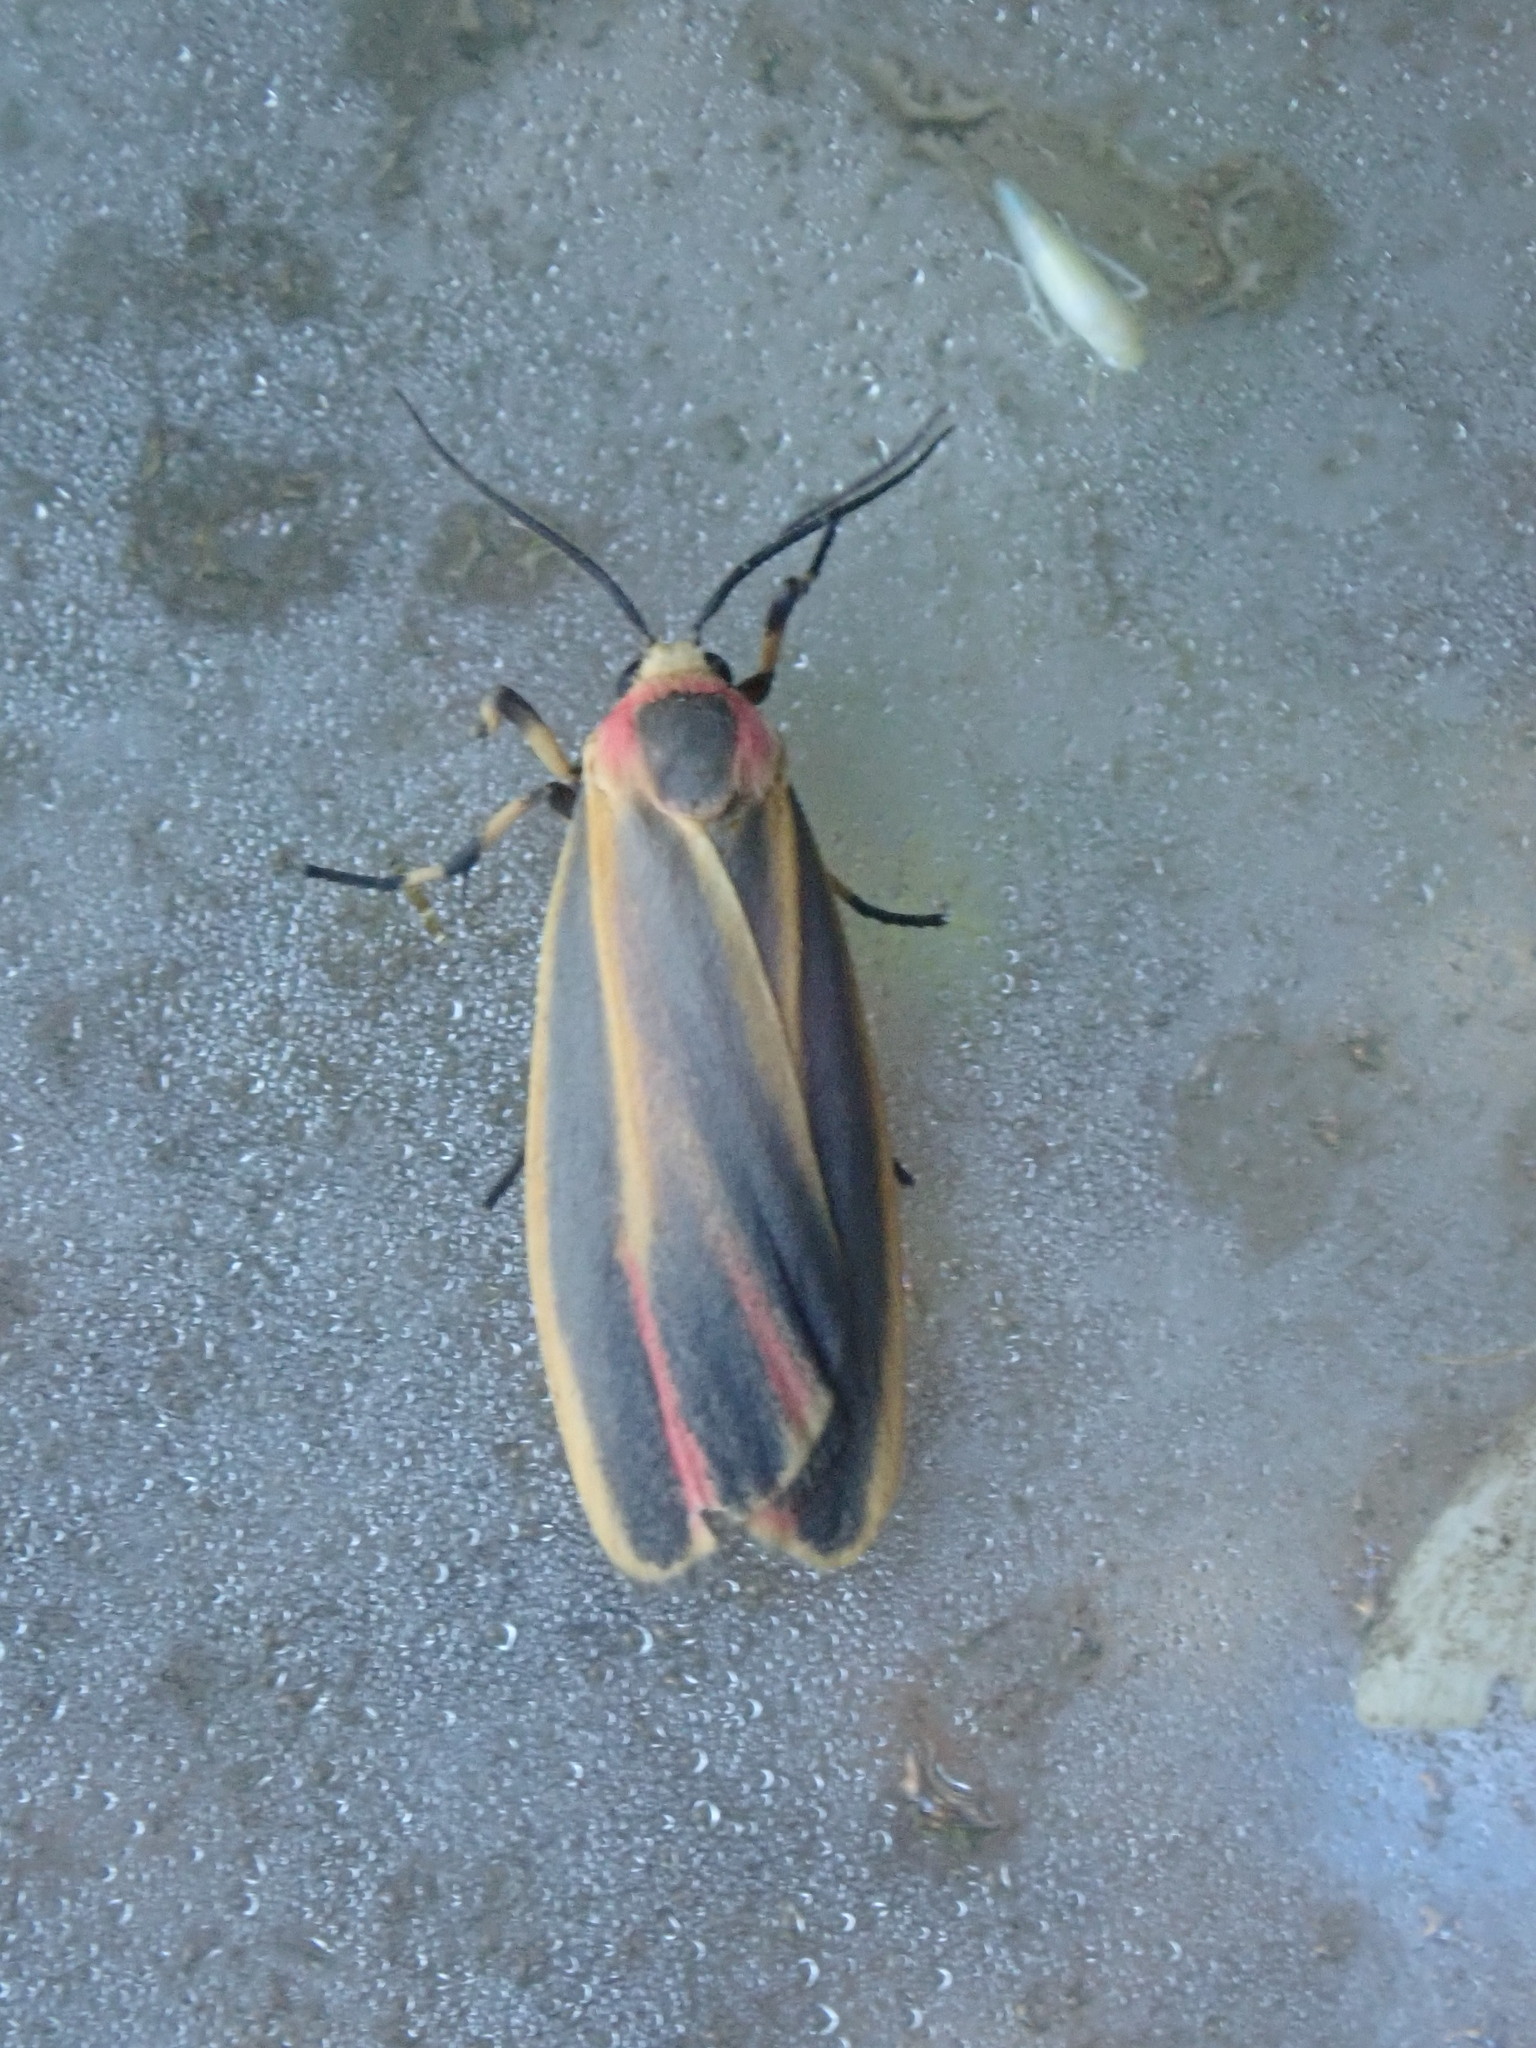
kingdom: Animalia
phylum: Arthropoda
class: Insecta
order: Lepidoptera
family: Erebidae
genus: Hypoprepia
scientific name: Hypoprepia fucosa
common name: Painted lichen moth
